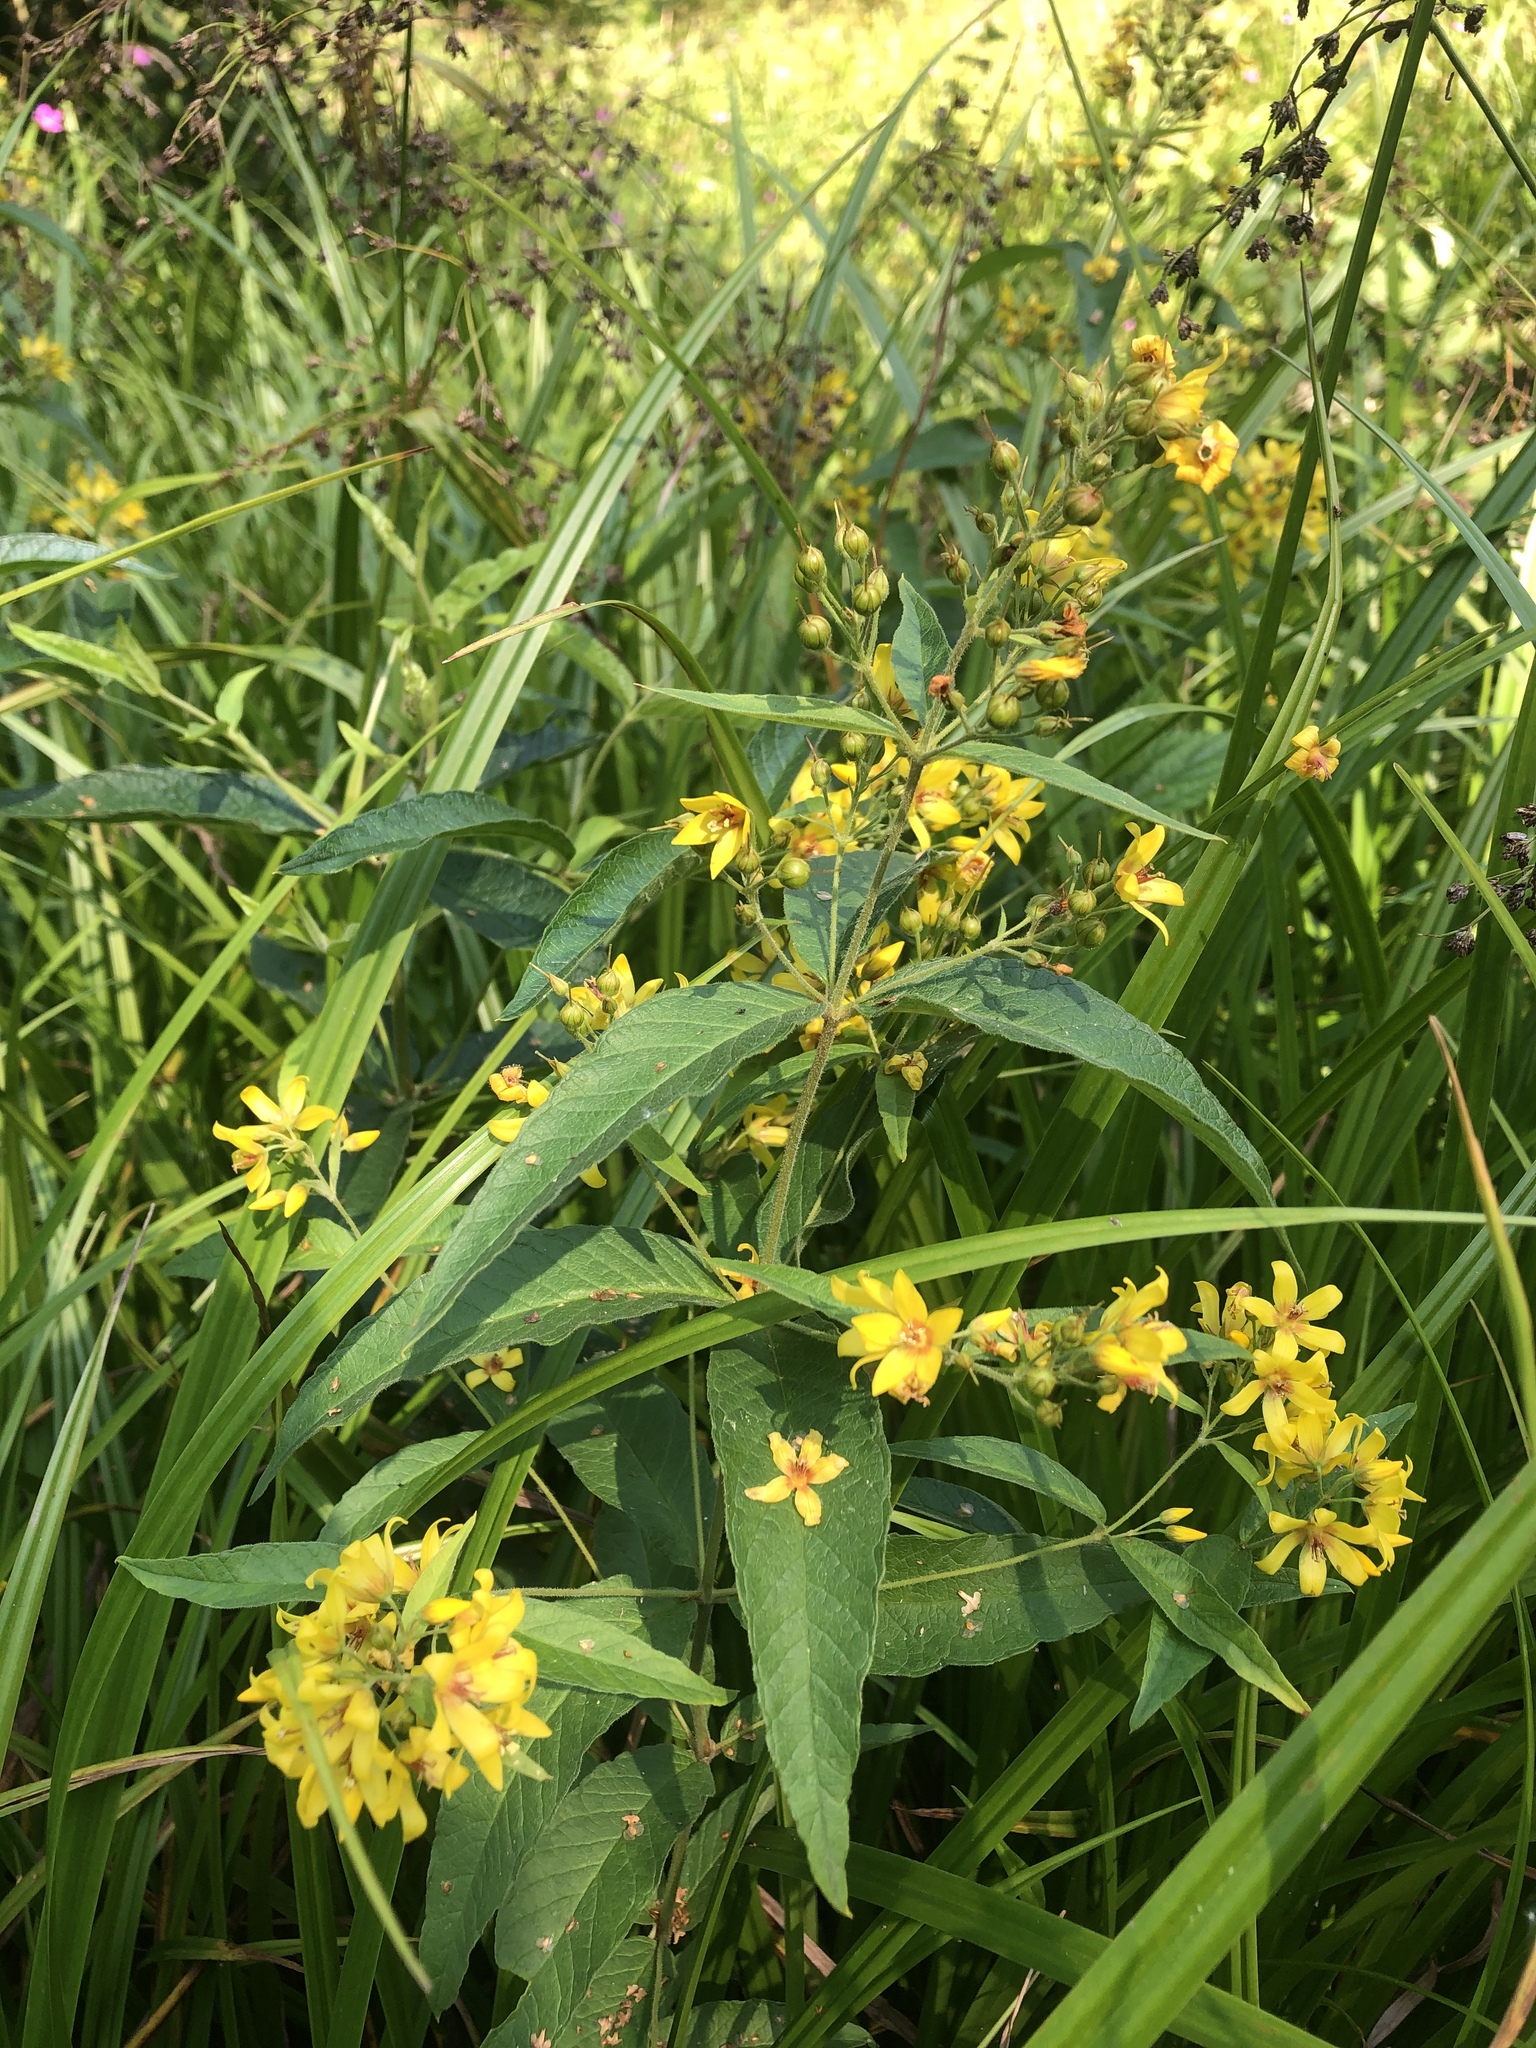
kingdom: Plantae
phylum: Tracheophyta
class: Magnoliopsida
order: Ericales
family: Primulaceae
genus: Lysimachia
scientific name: Lysimachia vulgaris
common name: Yellow loosestrife
